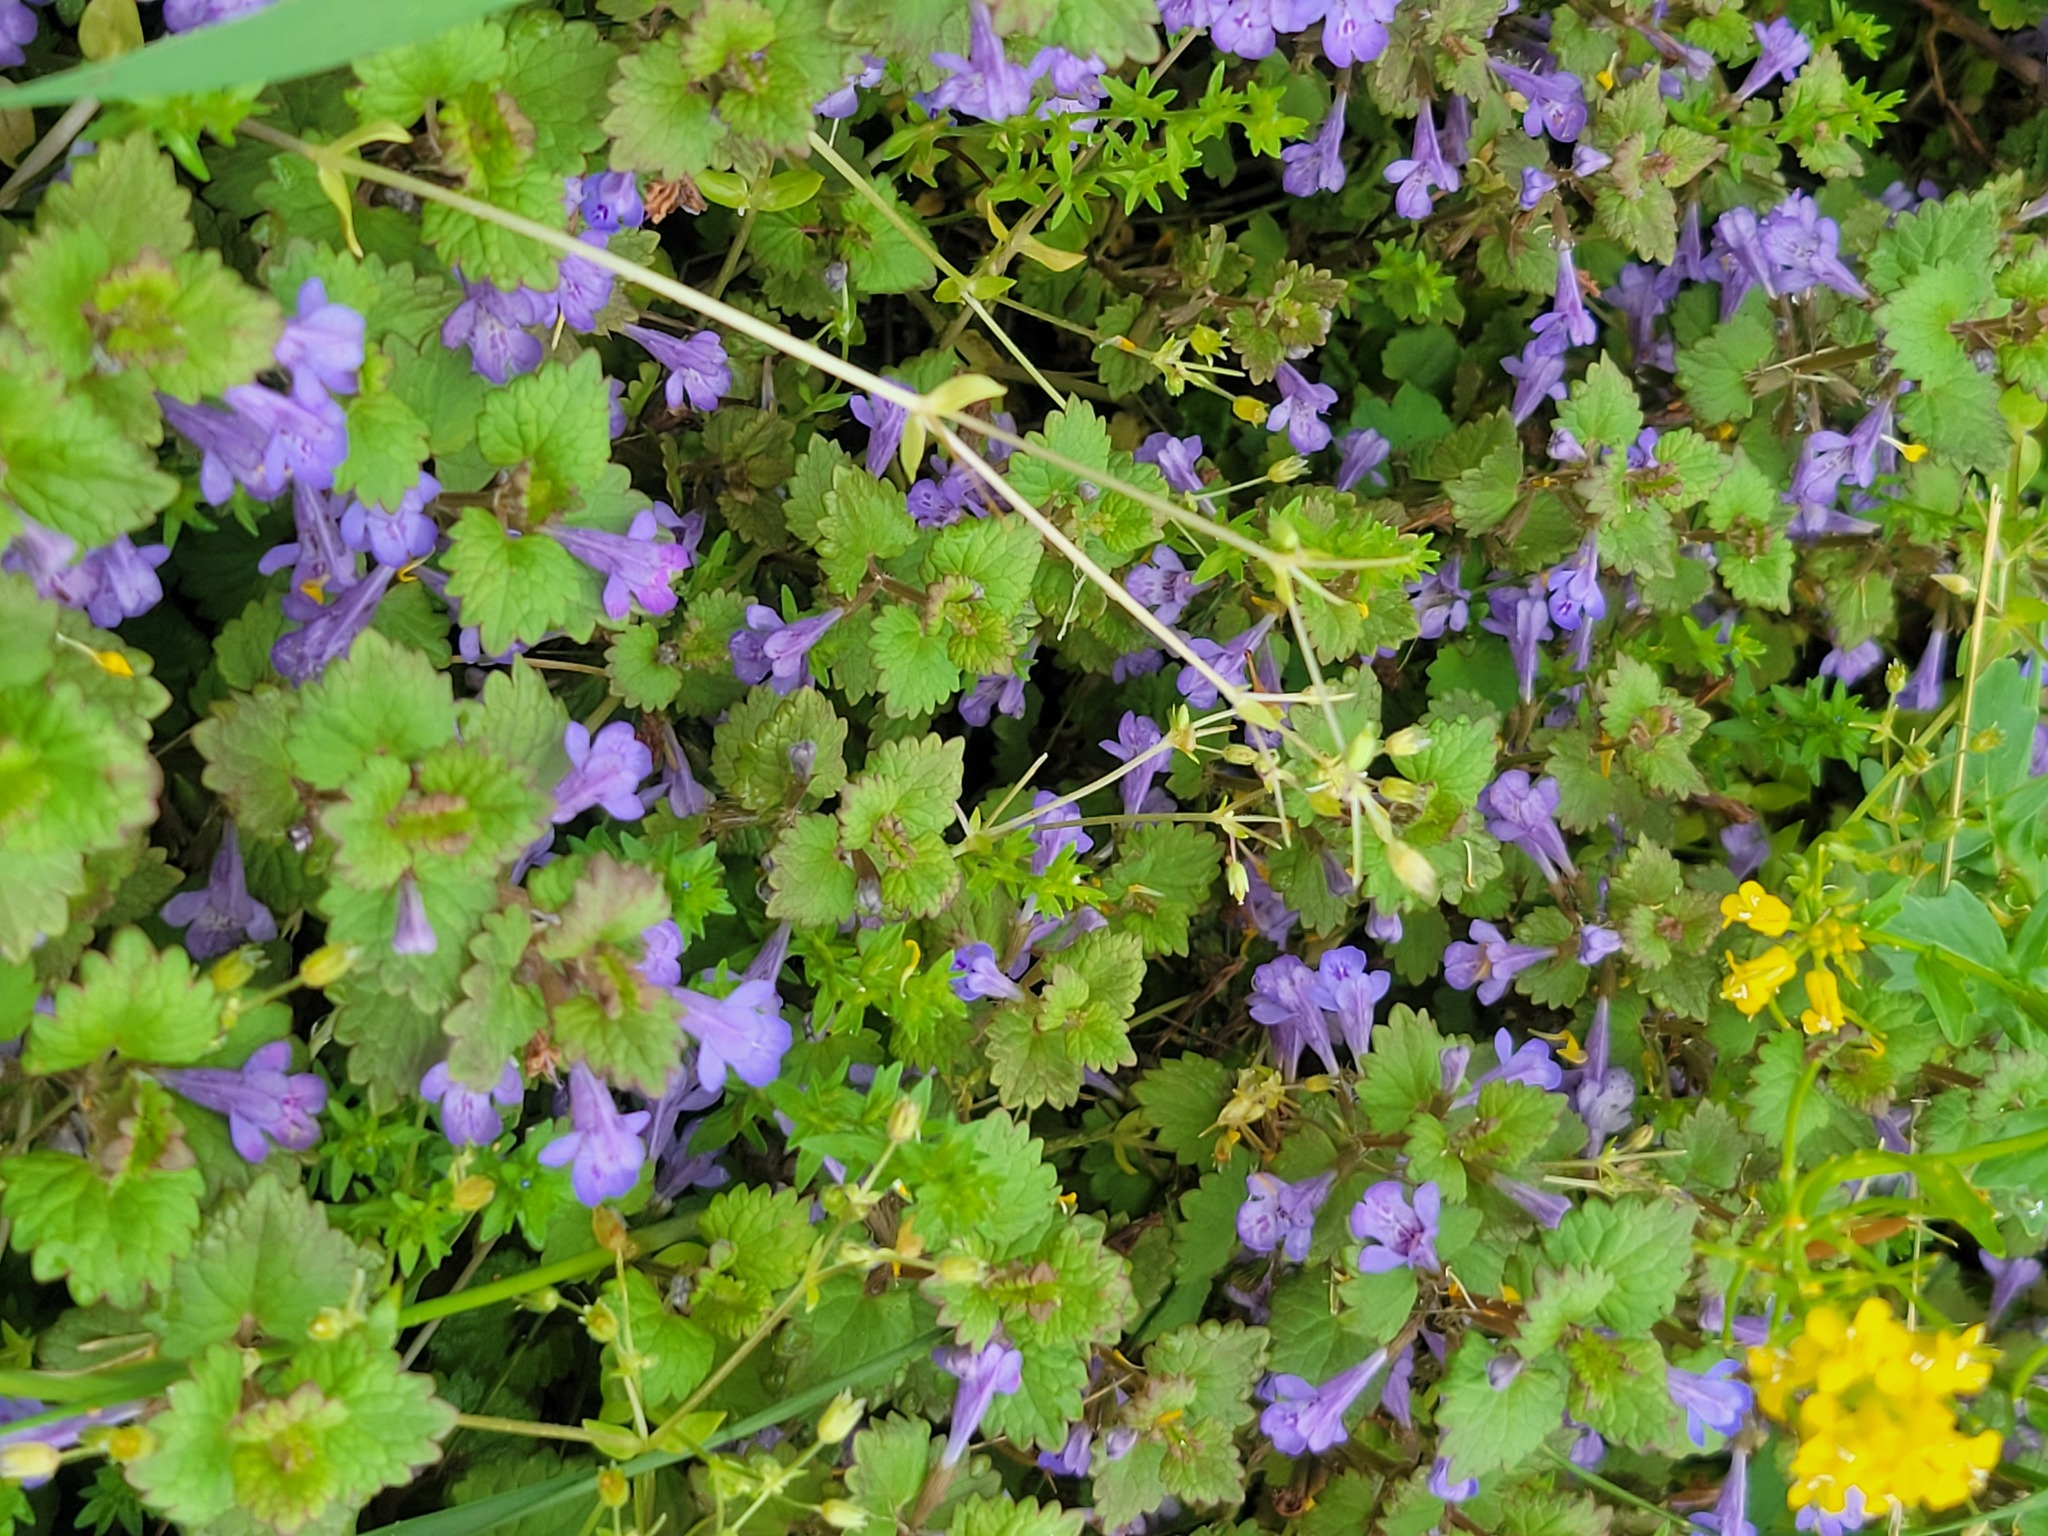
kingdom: Plantae
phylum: Tracheophyta
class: Magnoliopsida
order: Lamiales
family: Lamiaceae
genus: Glechoma
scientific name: Glechoma hederacea
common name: Ground ivy
